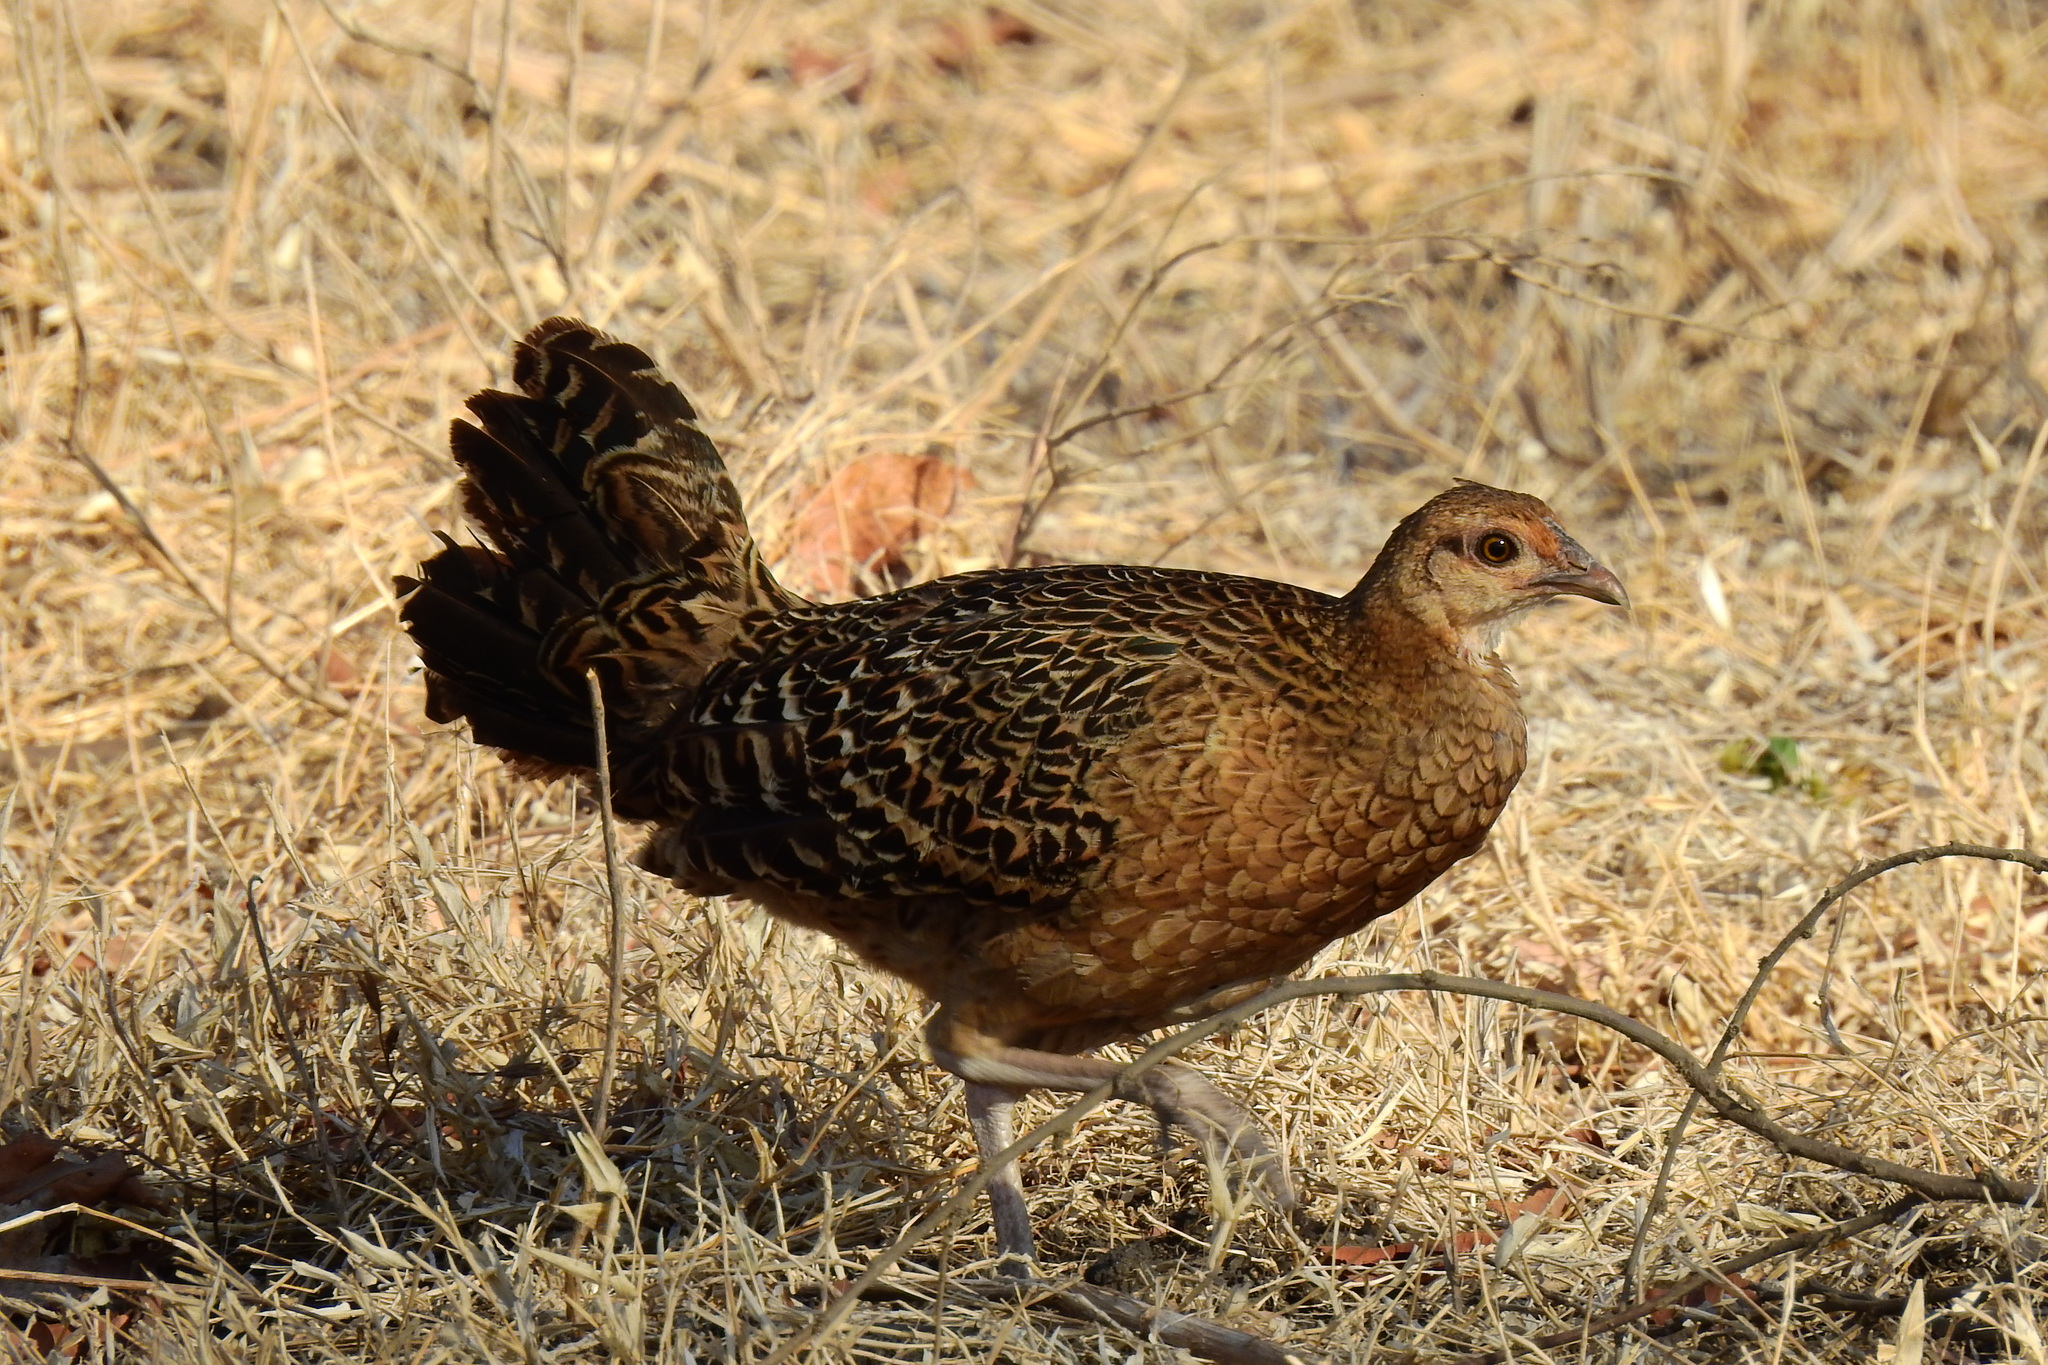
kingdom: Animalia
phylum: Chordata
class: Aves
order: Galliformes
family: Phasianidae
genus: Gallus
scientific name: Gallus varius
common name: Green junglefowl
